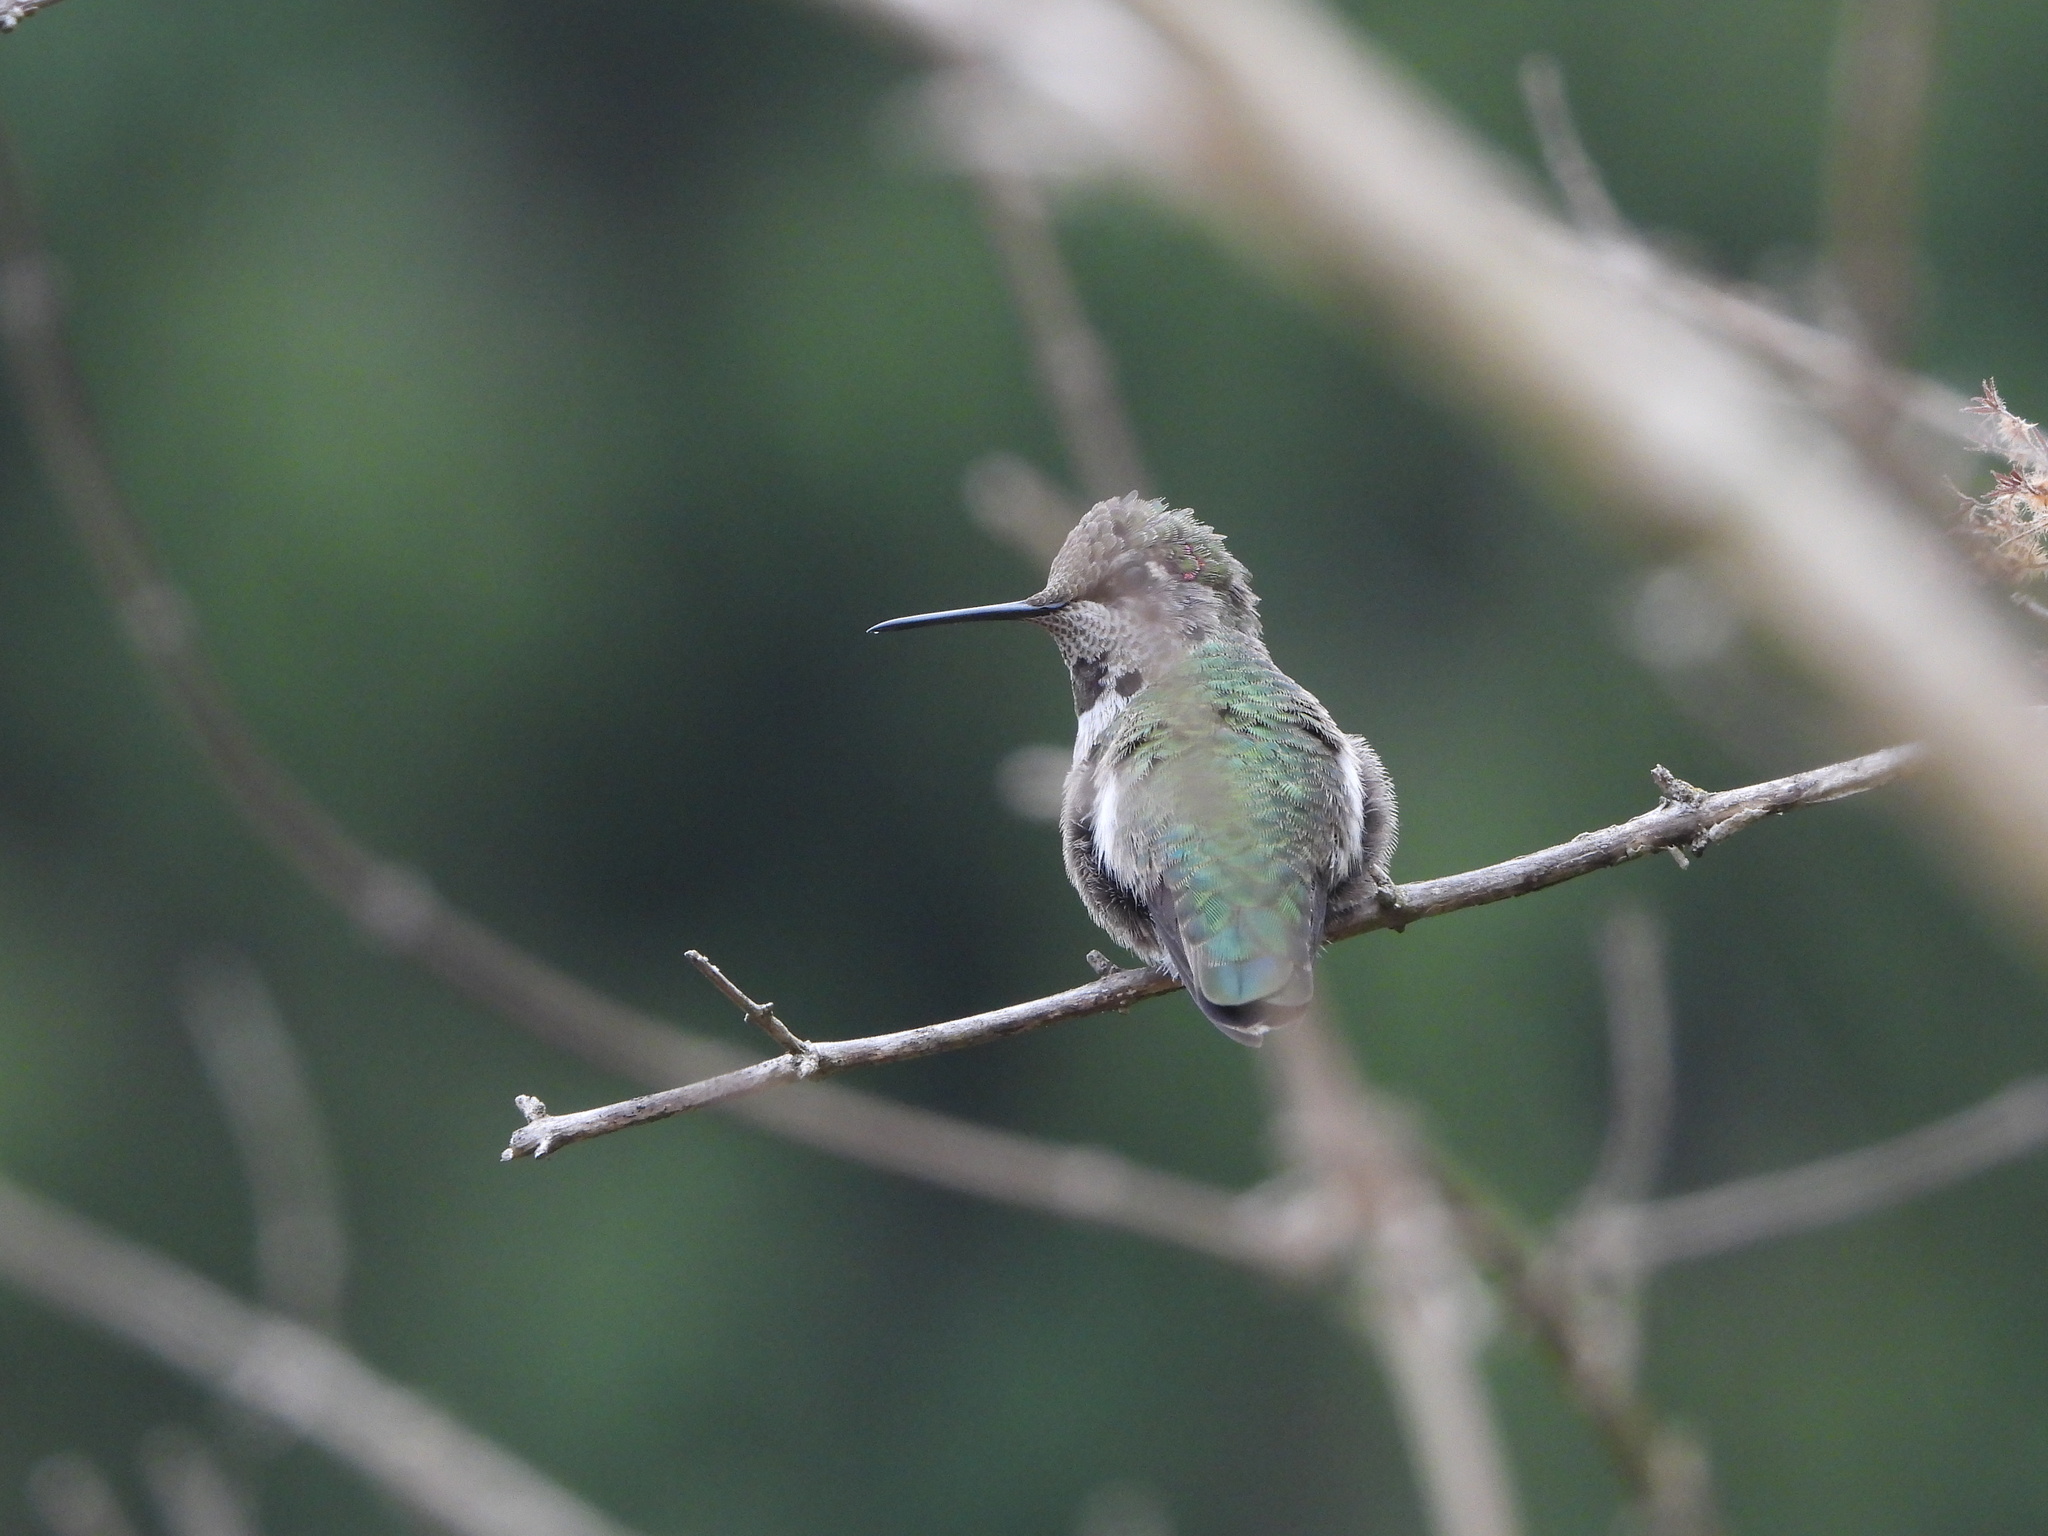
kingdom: Animalia
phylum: Chordata
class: Aves
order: Apodiformes
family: Trochilidae
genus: Calypte
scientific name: Calypte anna
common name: Anna's hummingbird
